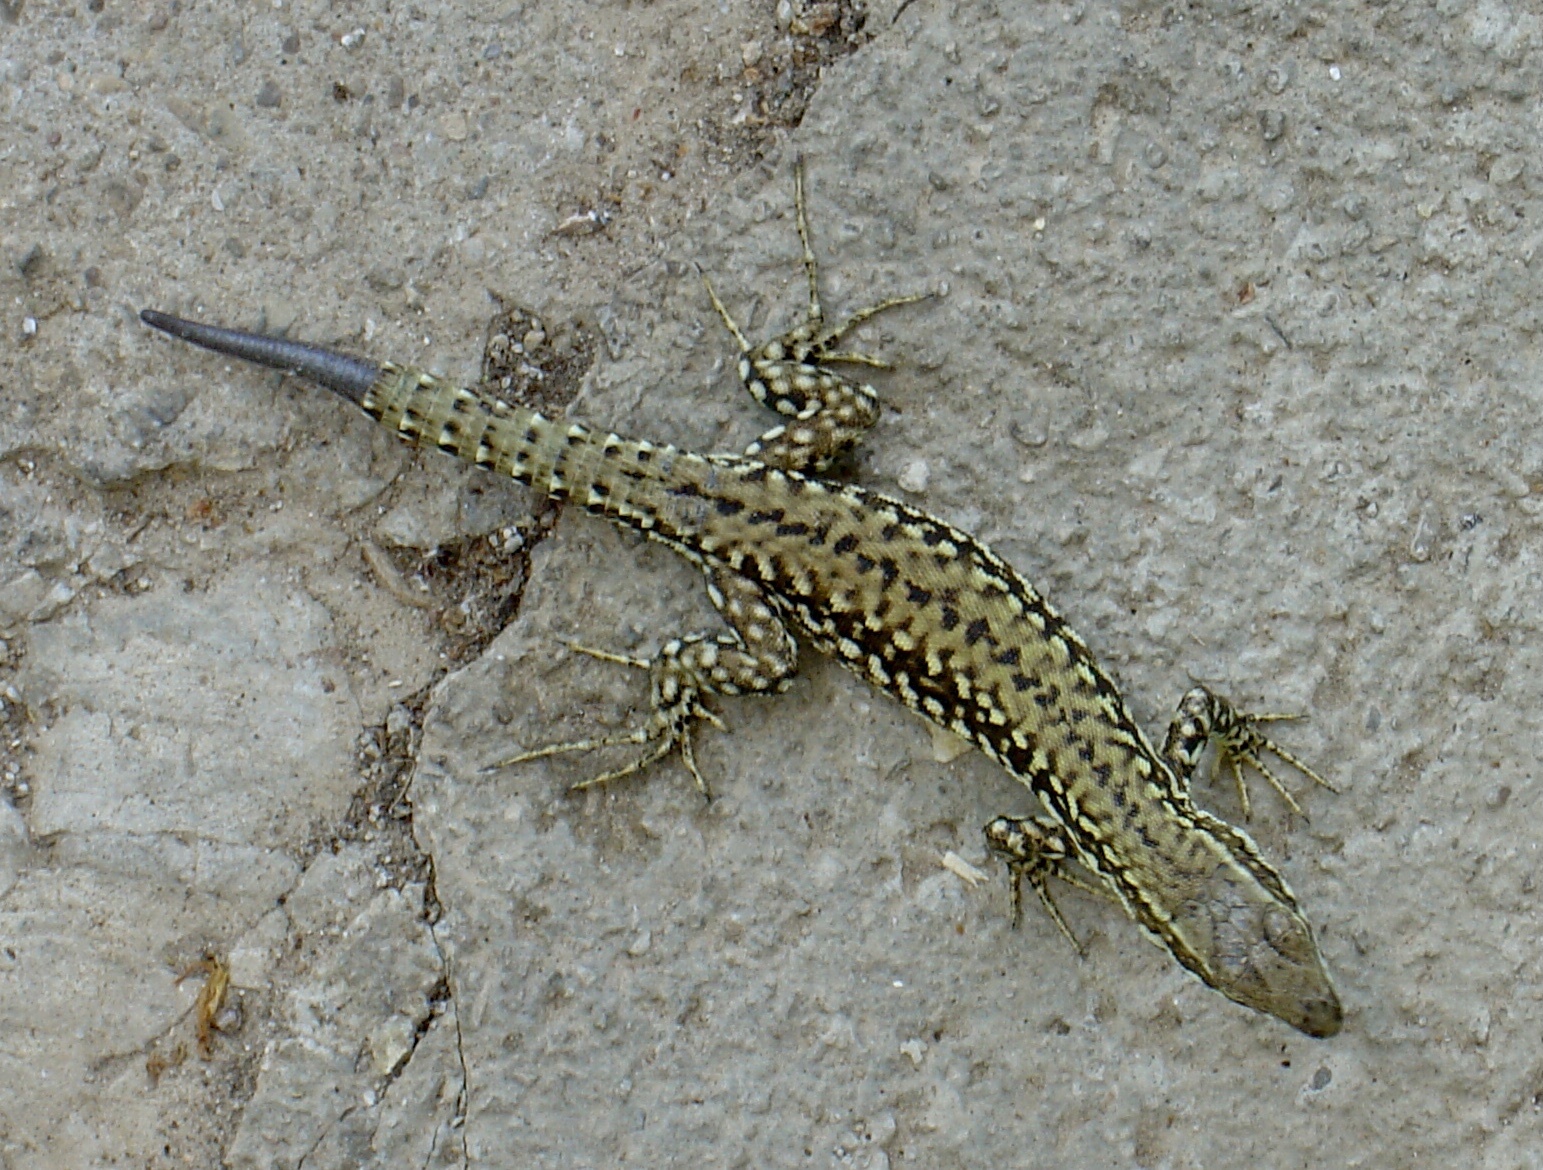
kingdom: Animalia
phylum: Chordata
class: Squamata
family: Lacertidae
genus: Podarcis
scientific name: Podarcis muralis
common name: Common wall lizard
